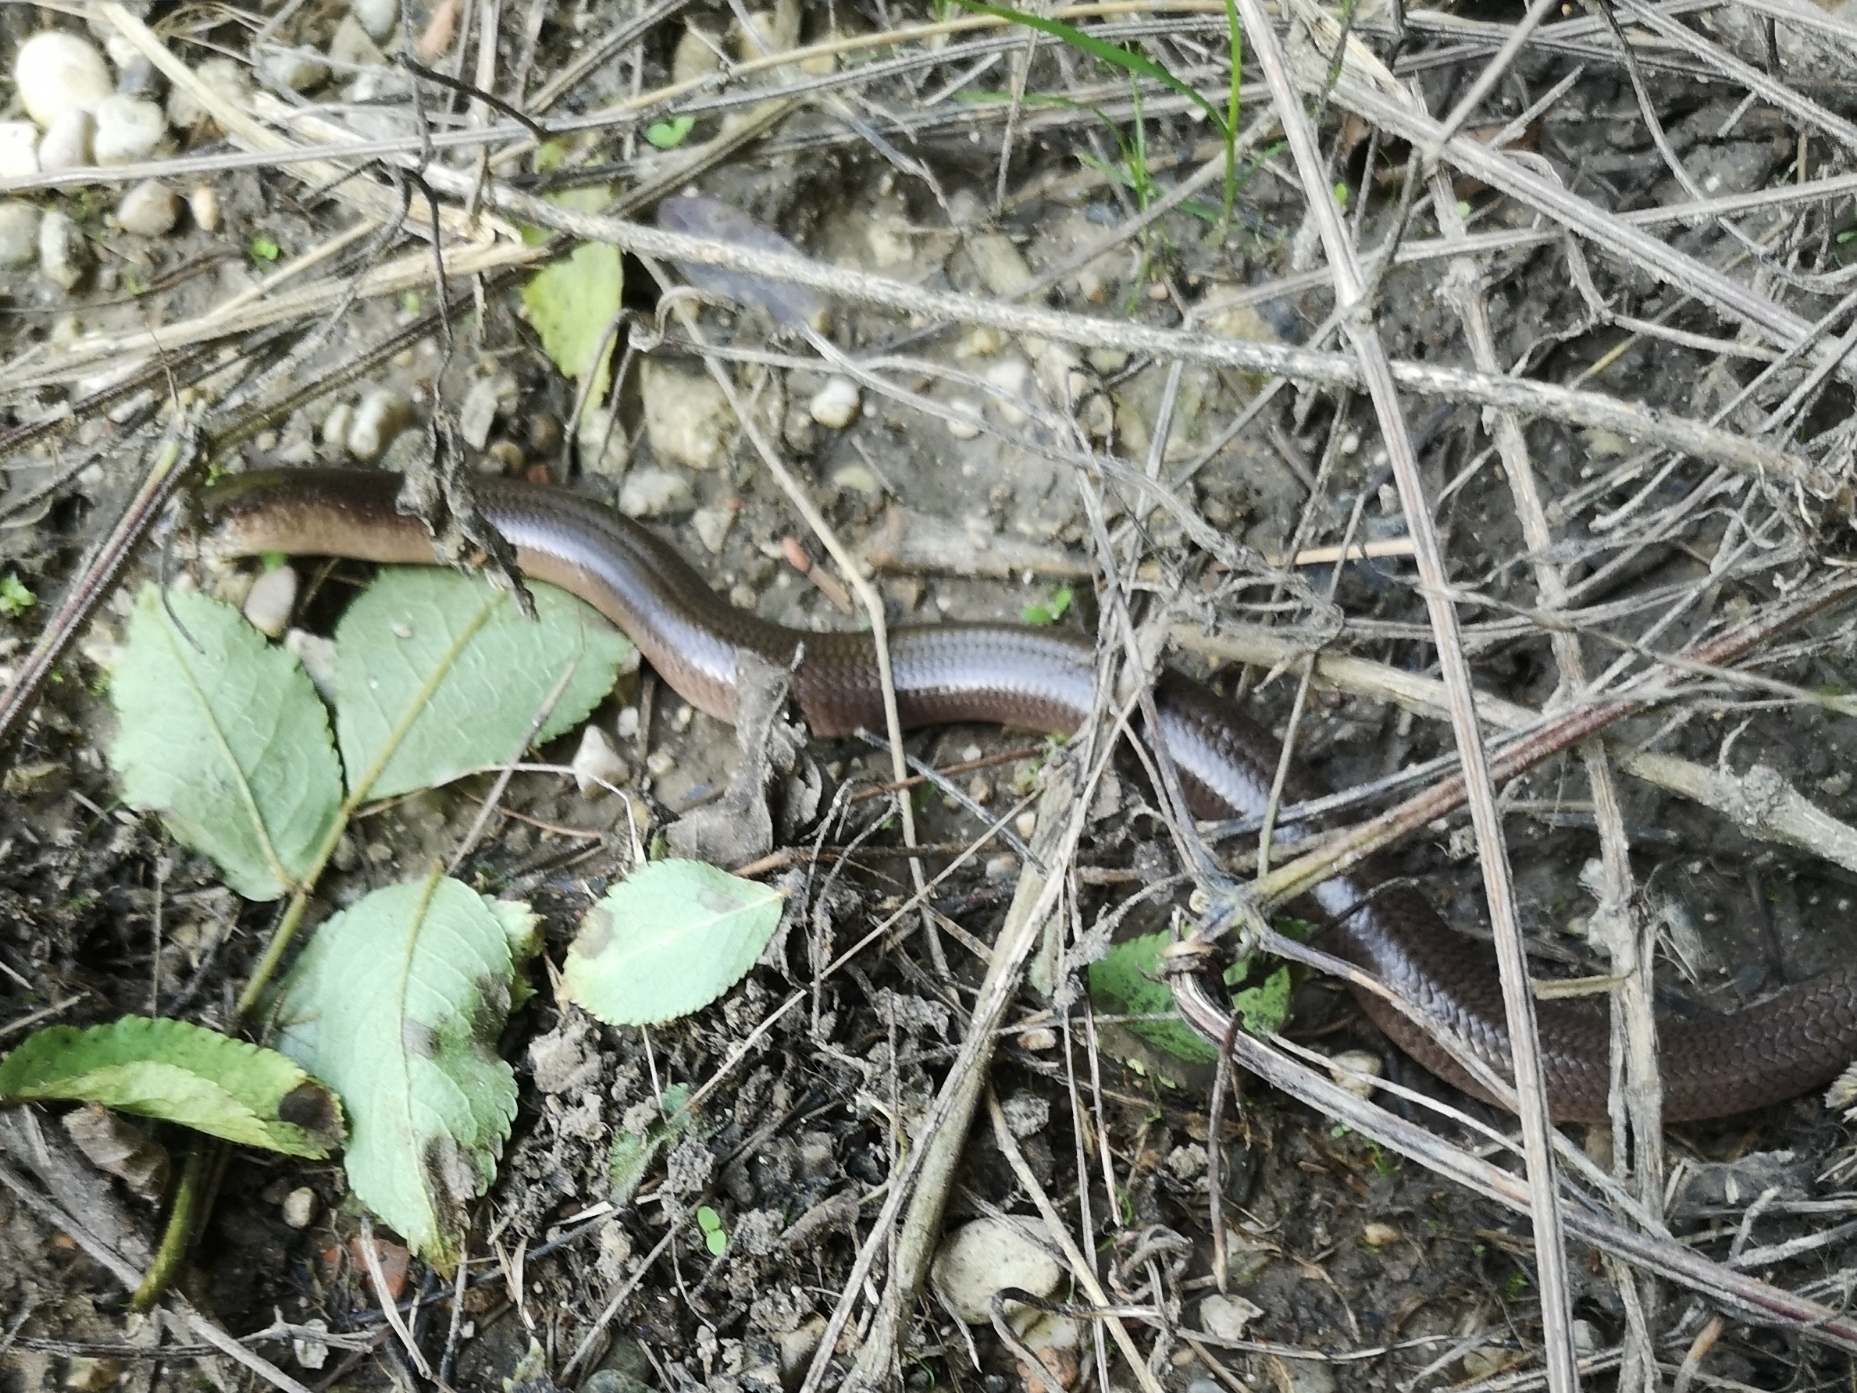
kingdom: Animalia
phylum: Chordata
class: Squamata
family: Anguidae
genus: Anguis
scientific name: Anguis
